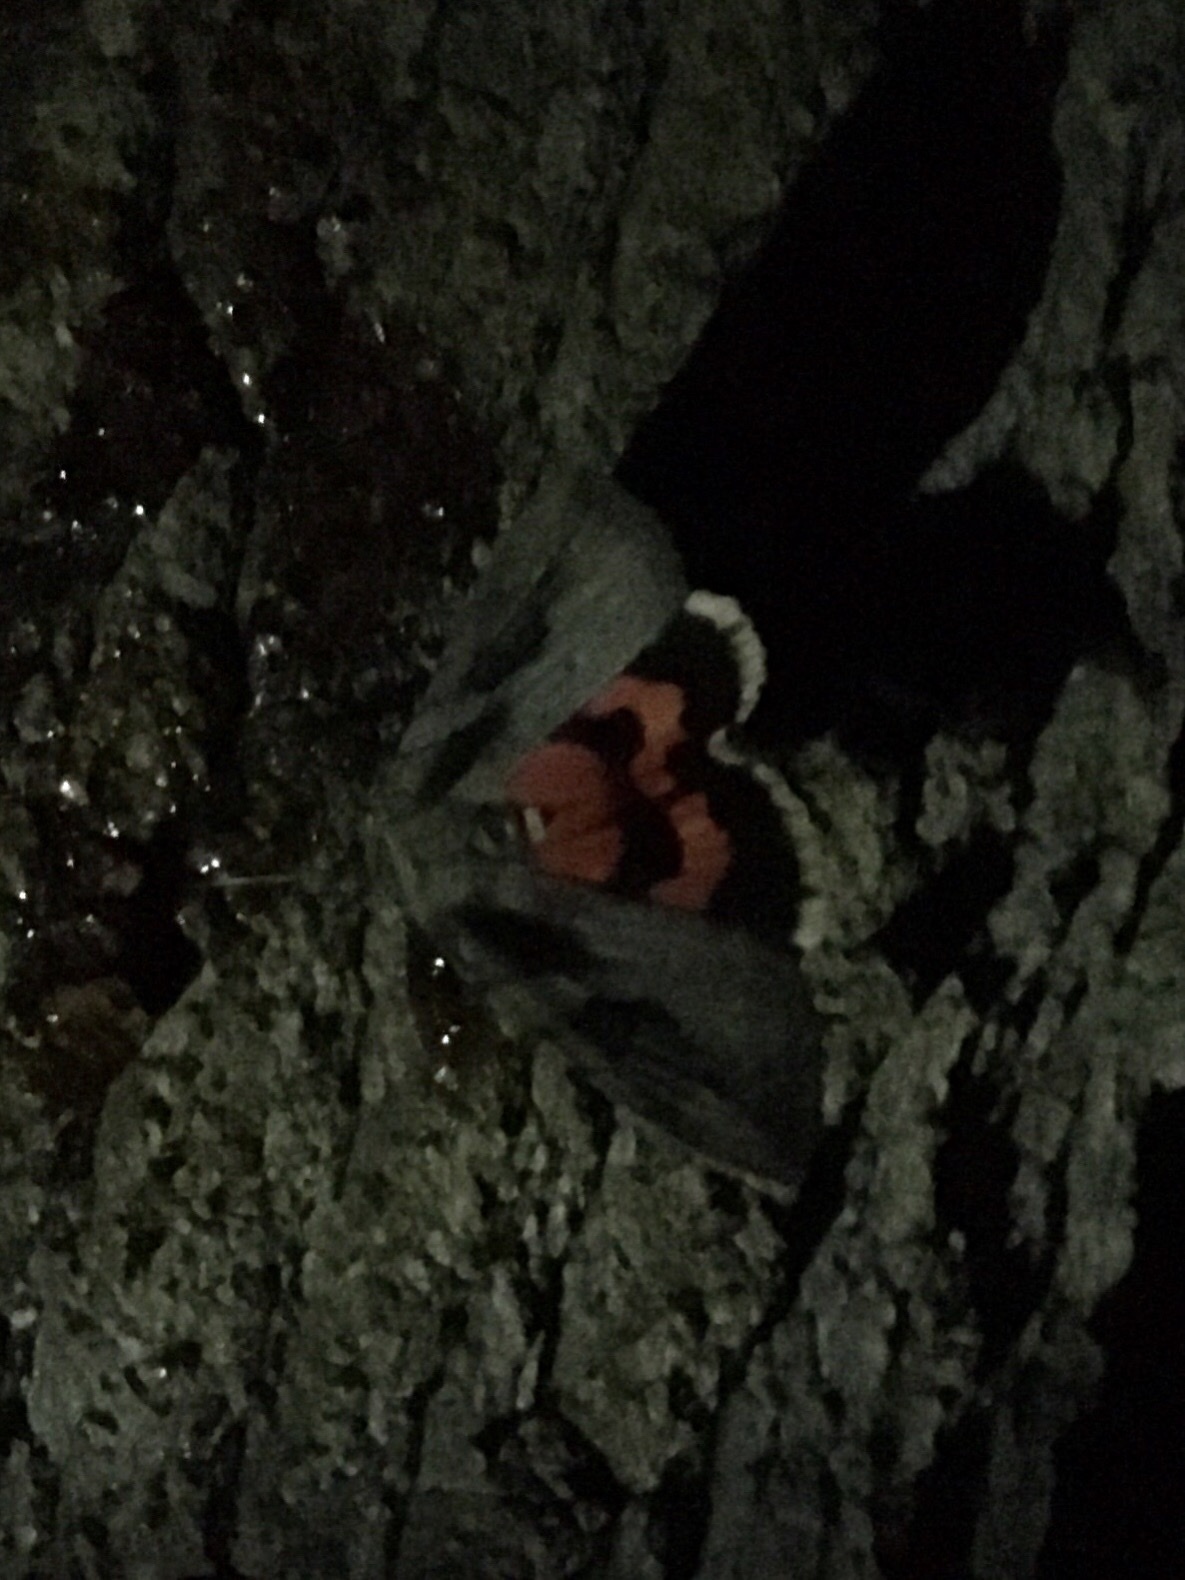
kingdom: Animalia
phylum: Arthropoda
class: Insecta
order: Lepidoptera
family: Erebidae
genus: Catocala
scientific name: Catocala amatrix
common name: Sweetheart underwing
